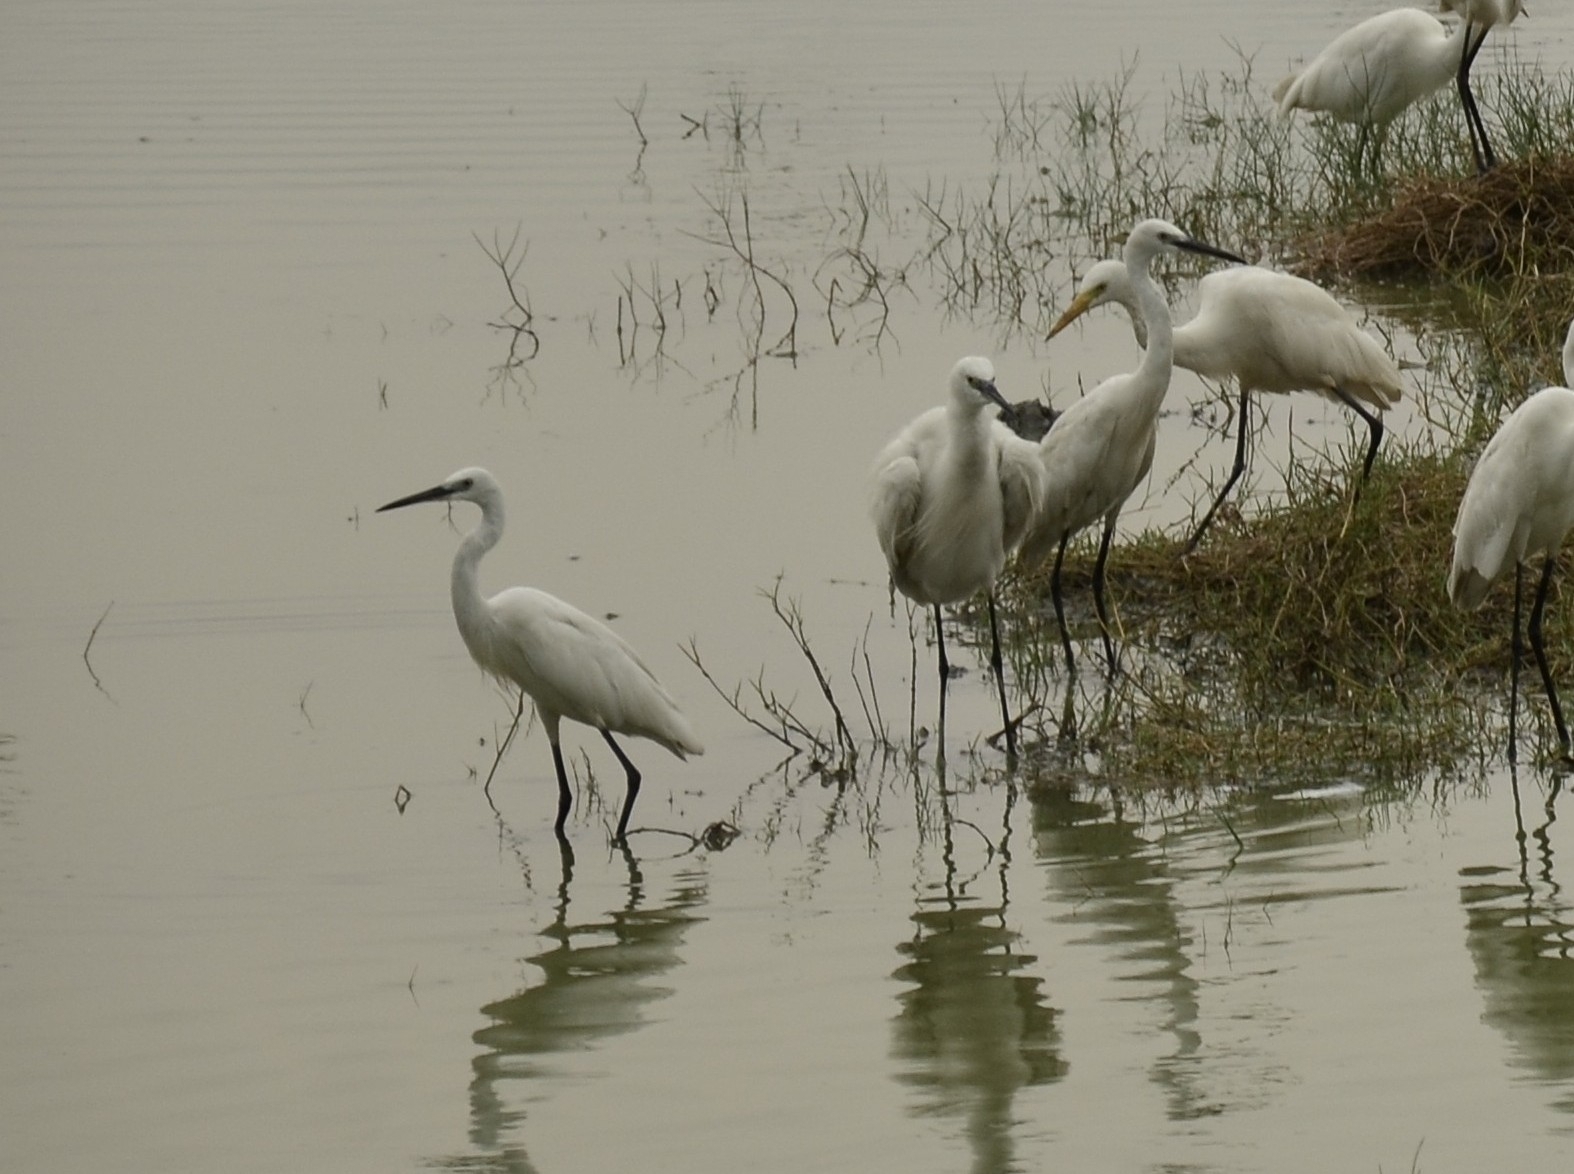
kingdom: Animalia
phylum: Chordata
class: Aves
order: Pelecaniformes
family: Ardeidae
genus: Egretta
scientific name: Egretta garzetta
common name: Little egret
